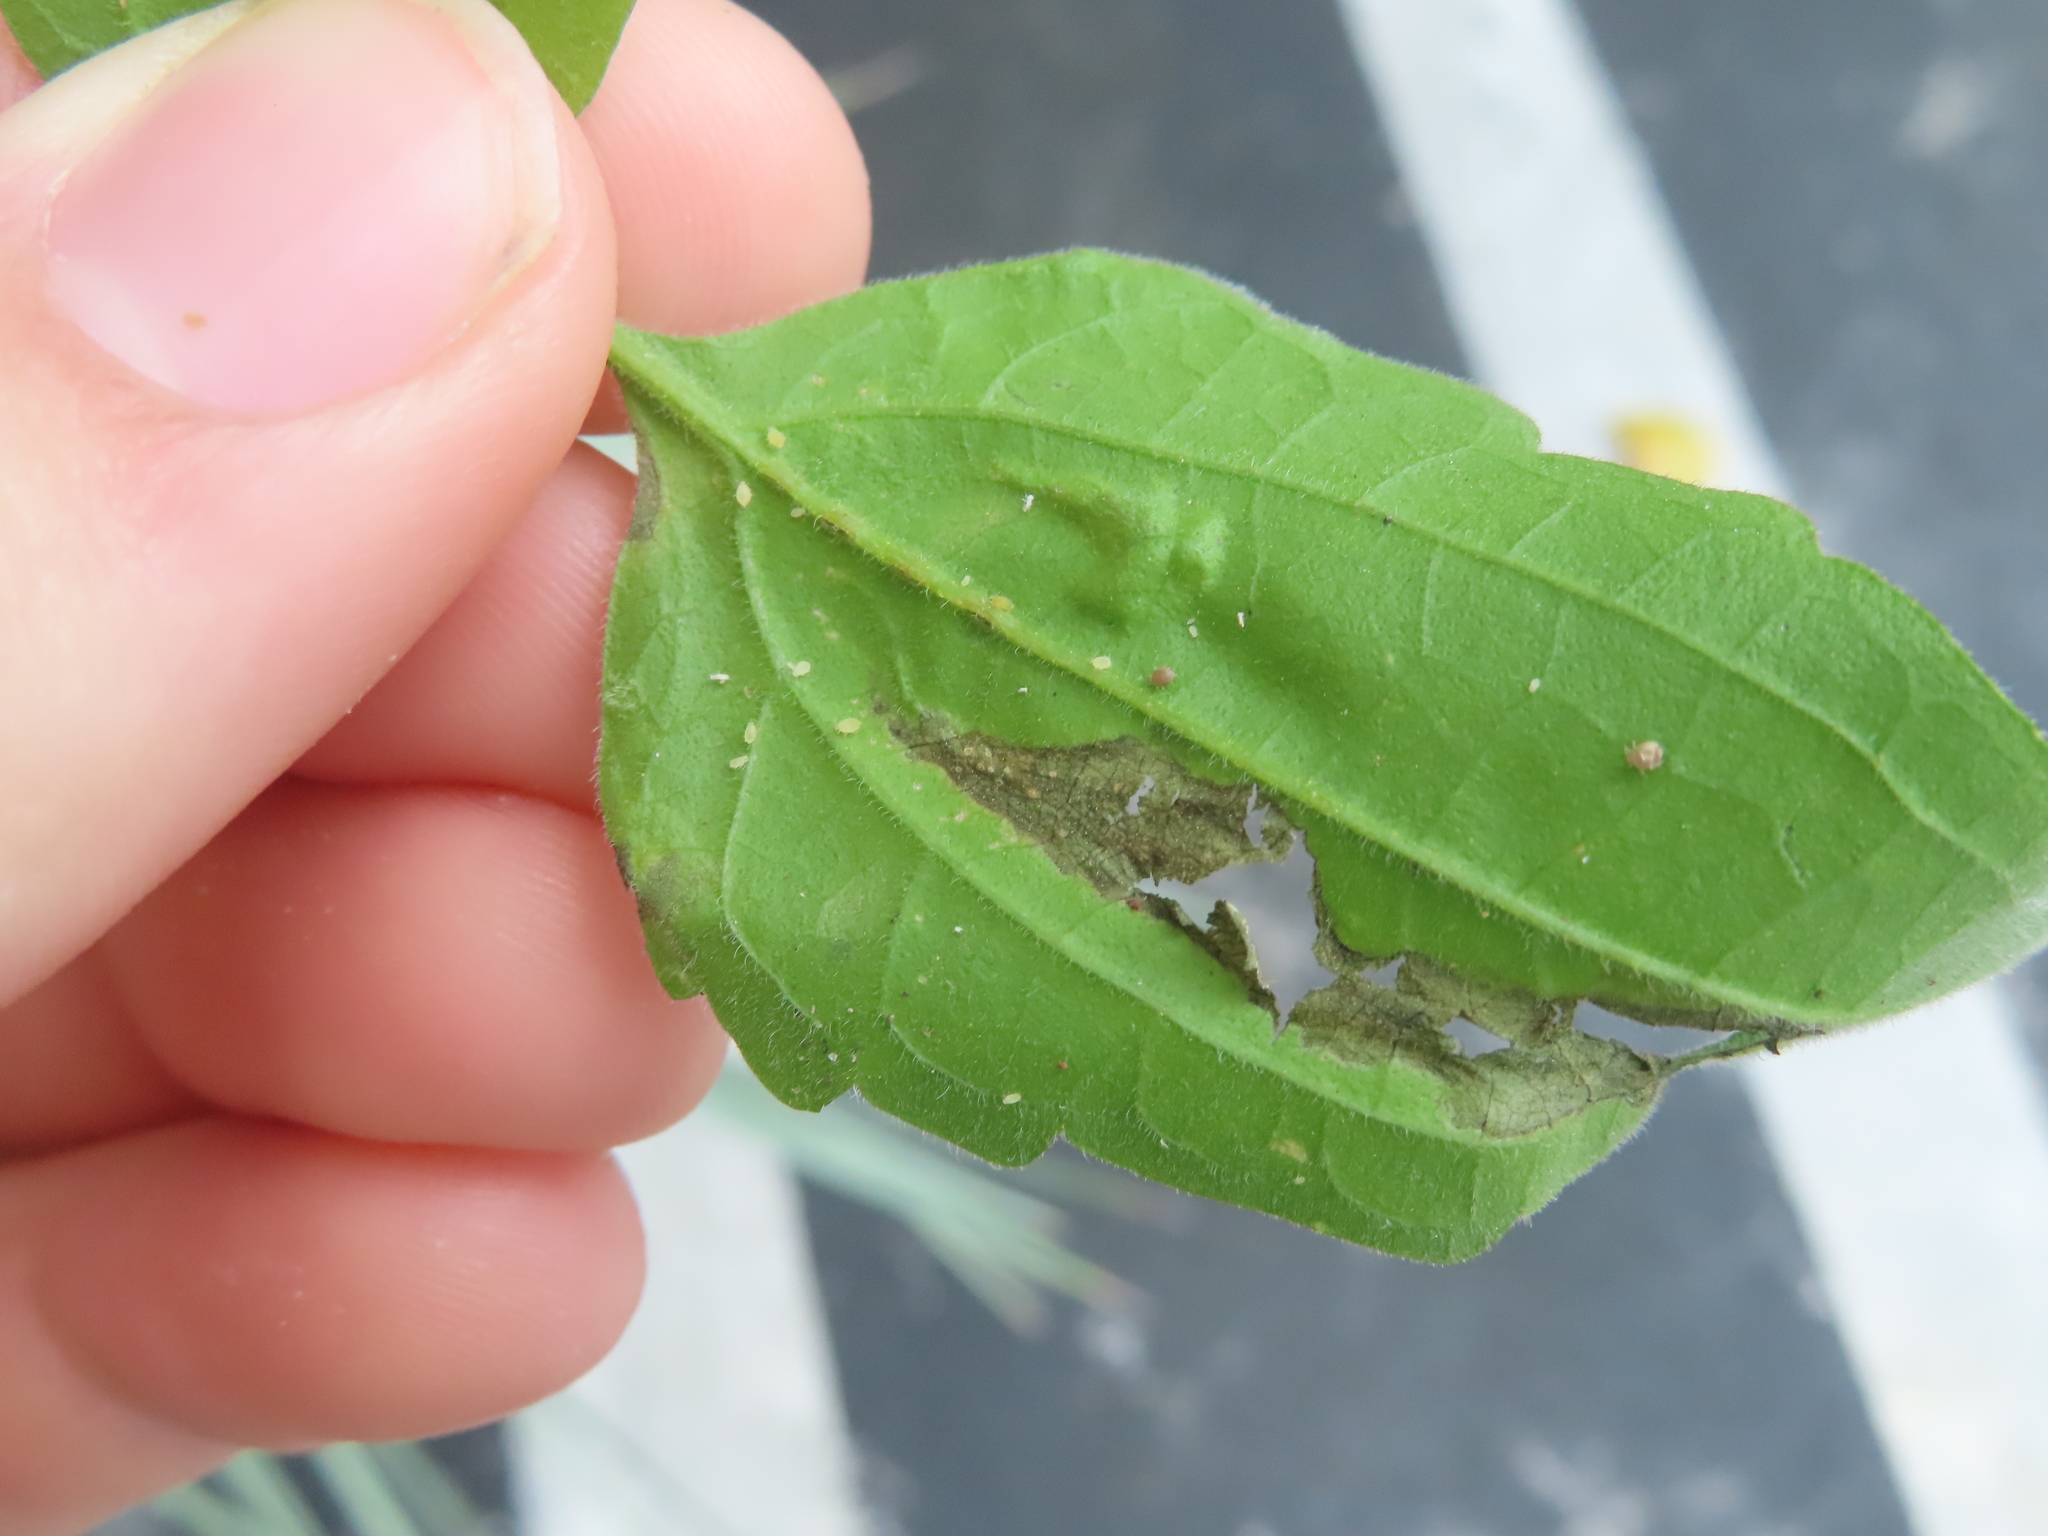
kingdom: Animalia
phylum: Arthropoda
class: Insecta
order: Diptera
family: Agromyzidae
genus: Calycomyza
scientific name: Calycomyza eupatorivora
